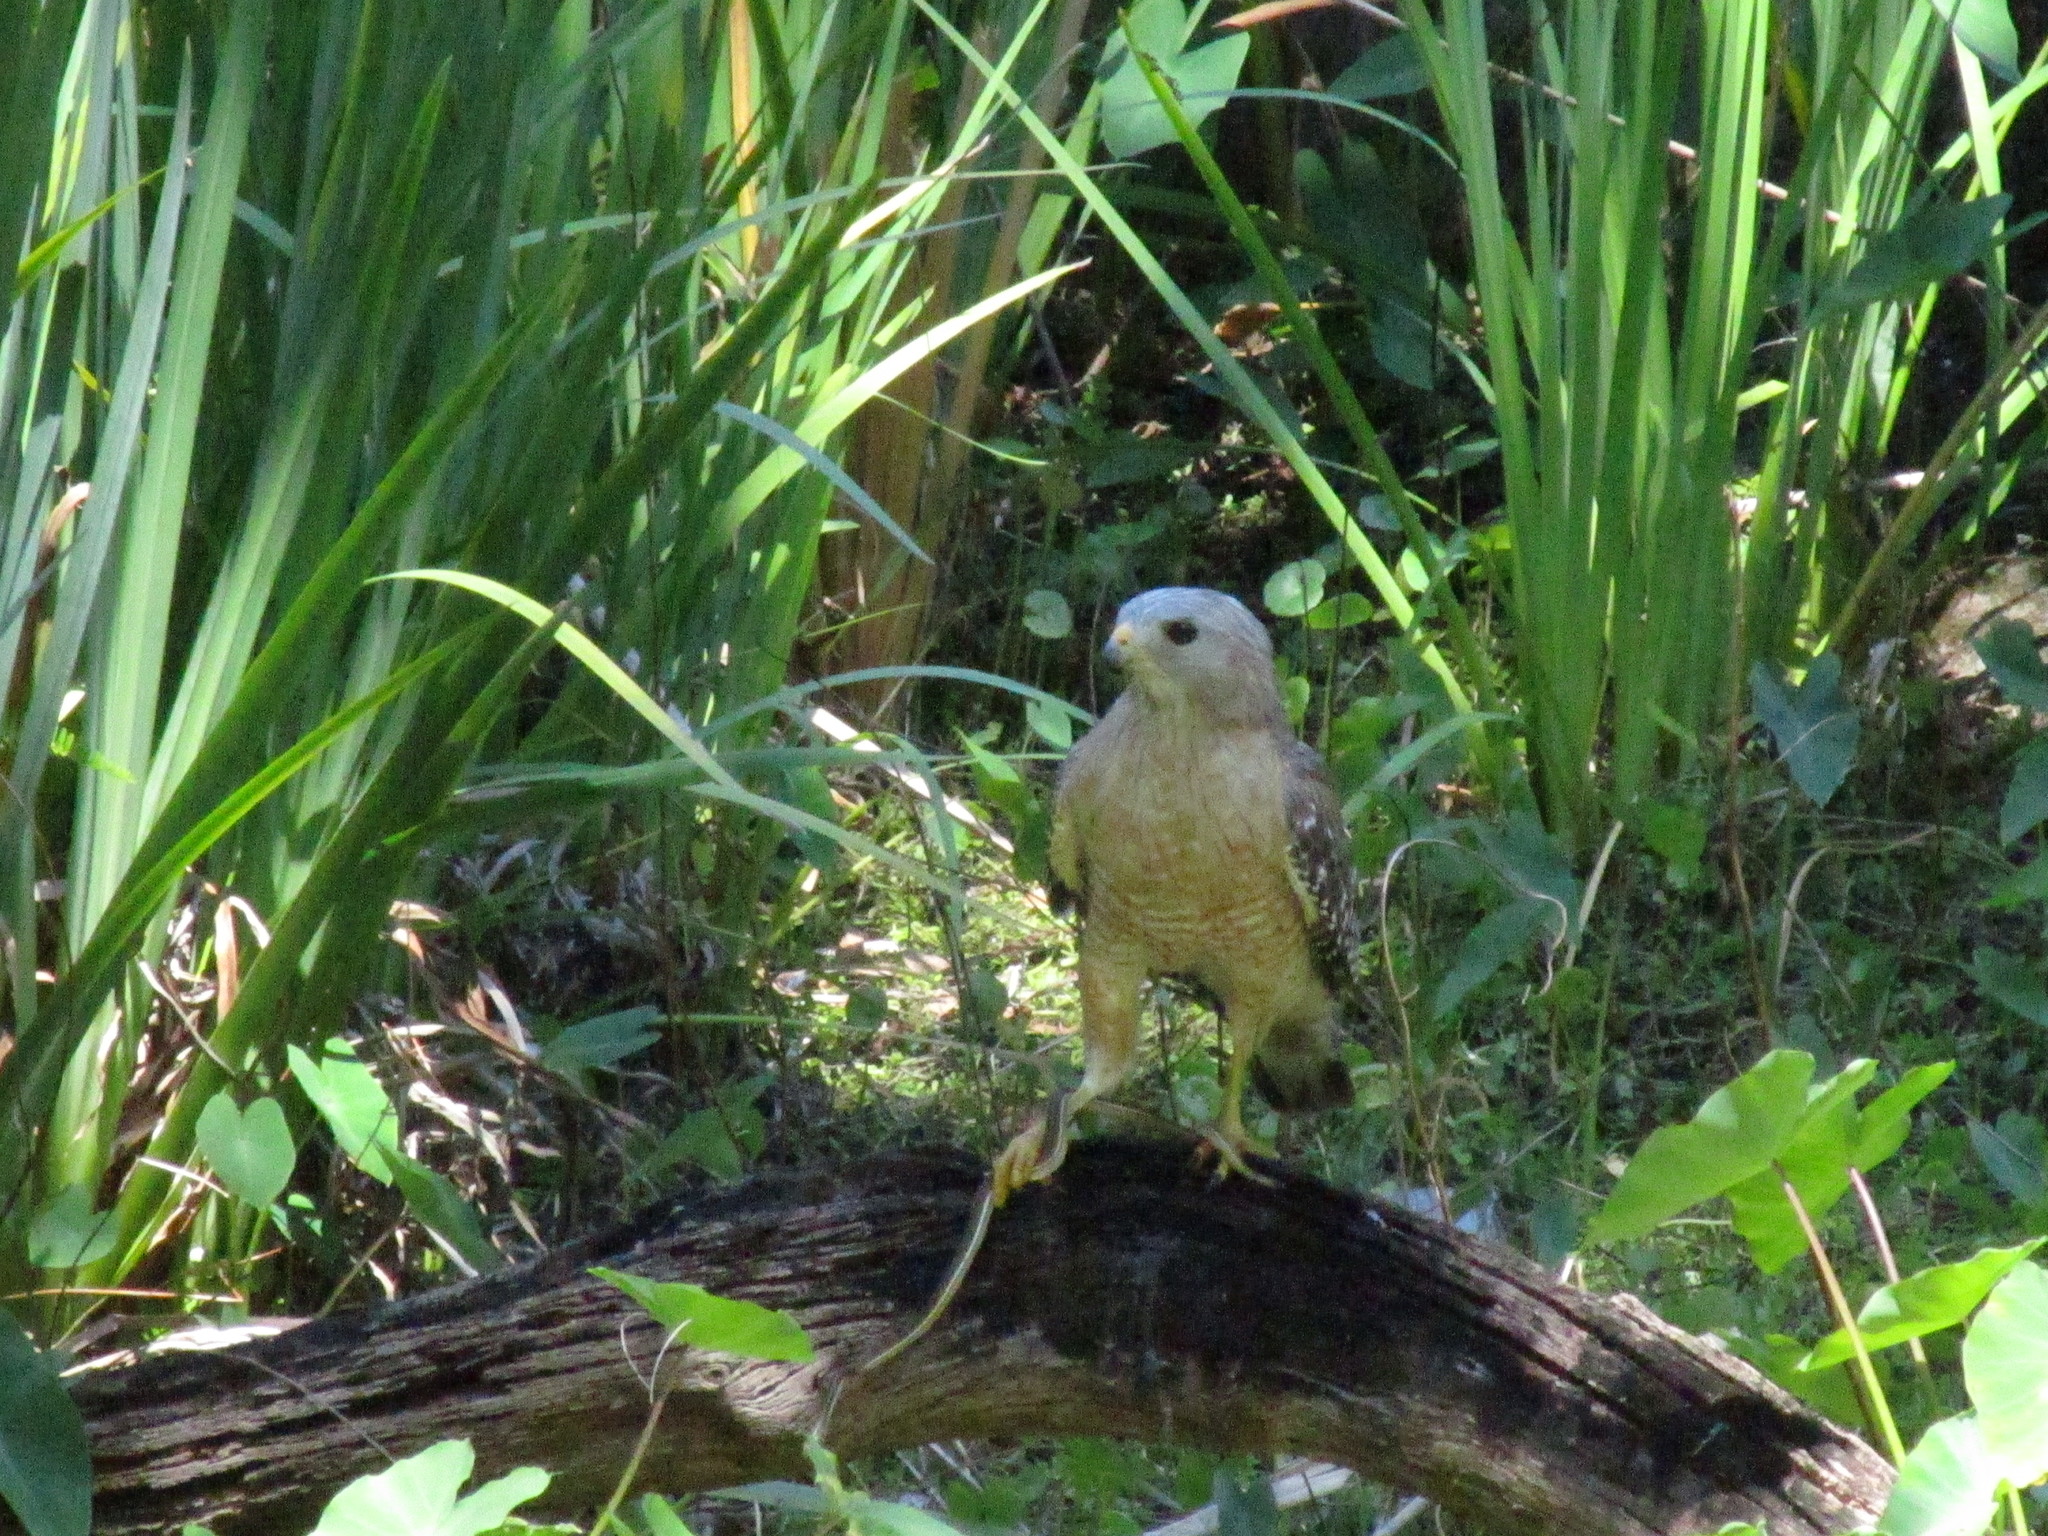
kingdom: Animalia
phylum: Chordata
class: Squamata
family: Colubridae
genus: Thamnophis
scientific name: Thamnophis saurita
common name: Eastern ribbonsnake
